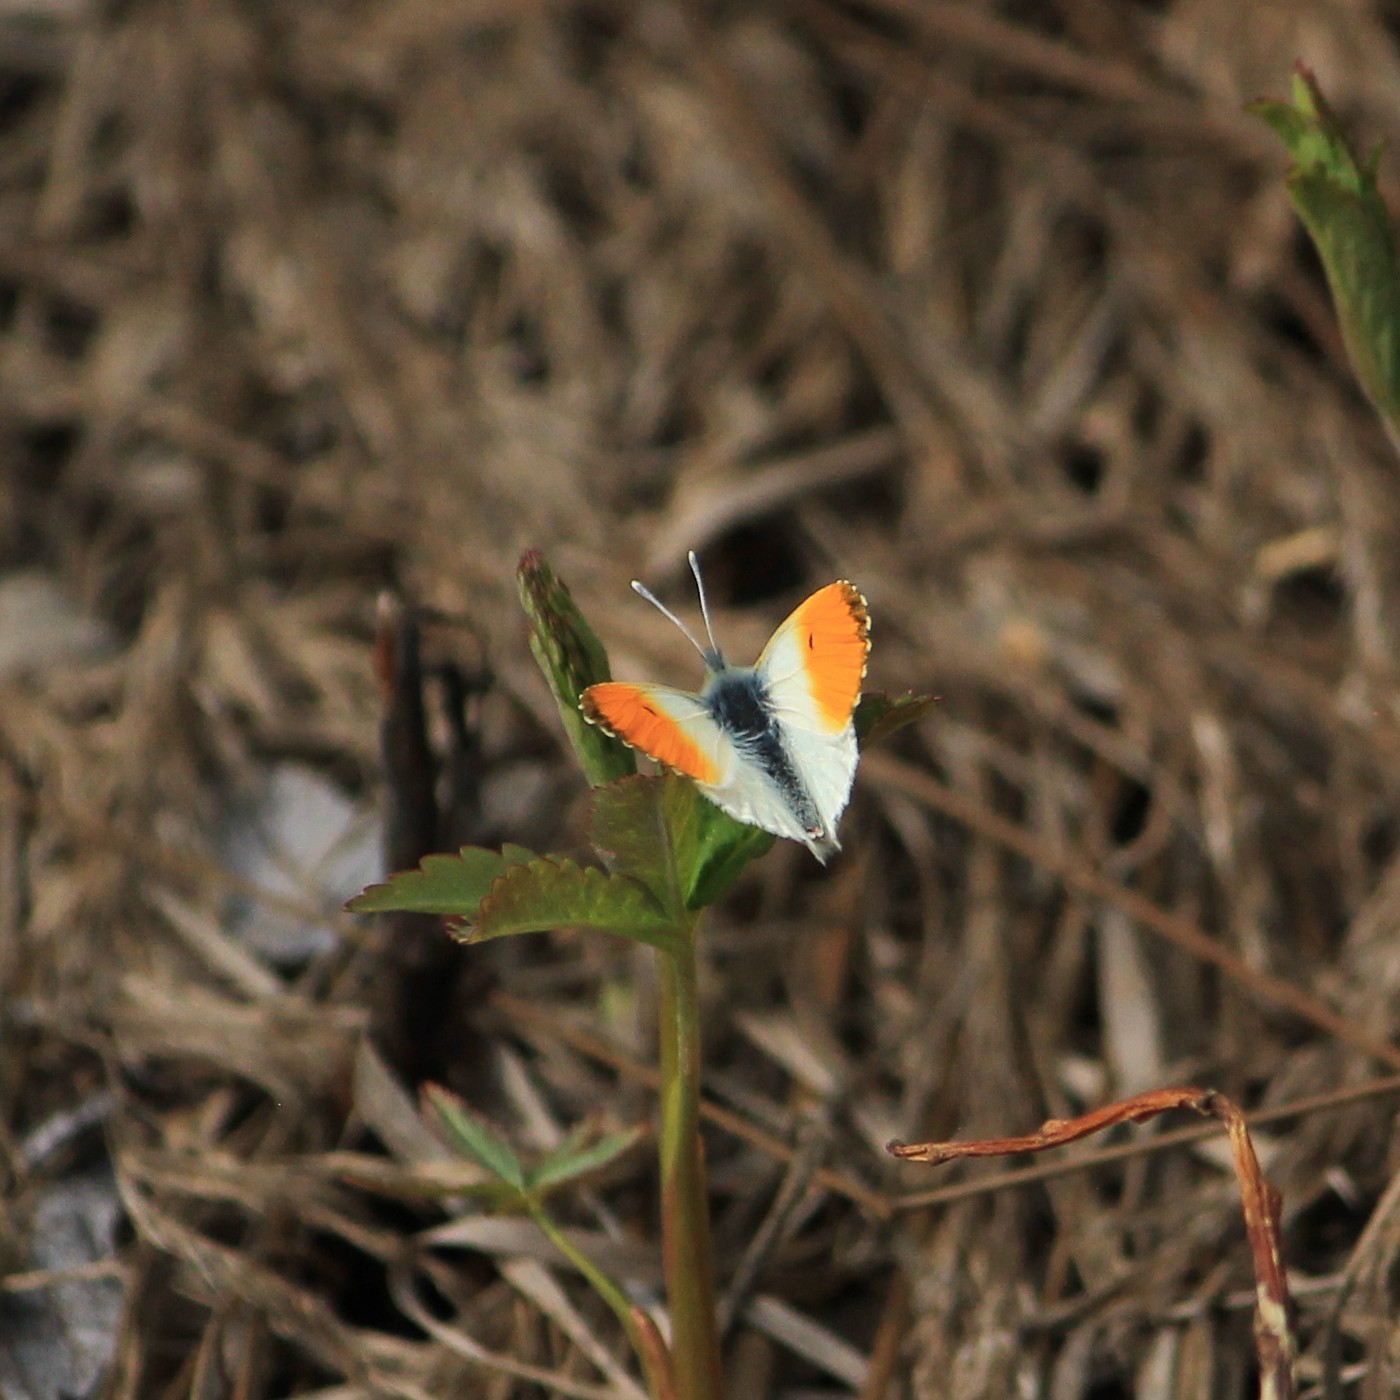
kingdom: Animalia
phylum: Arthropoda
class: Insecta
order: Lepidoptera
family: Pieridae
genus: Anthocharis
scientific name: Anthocharis cardamines
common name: Orange-tip
